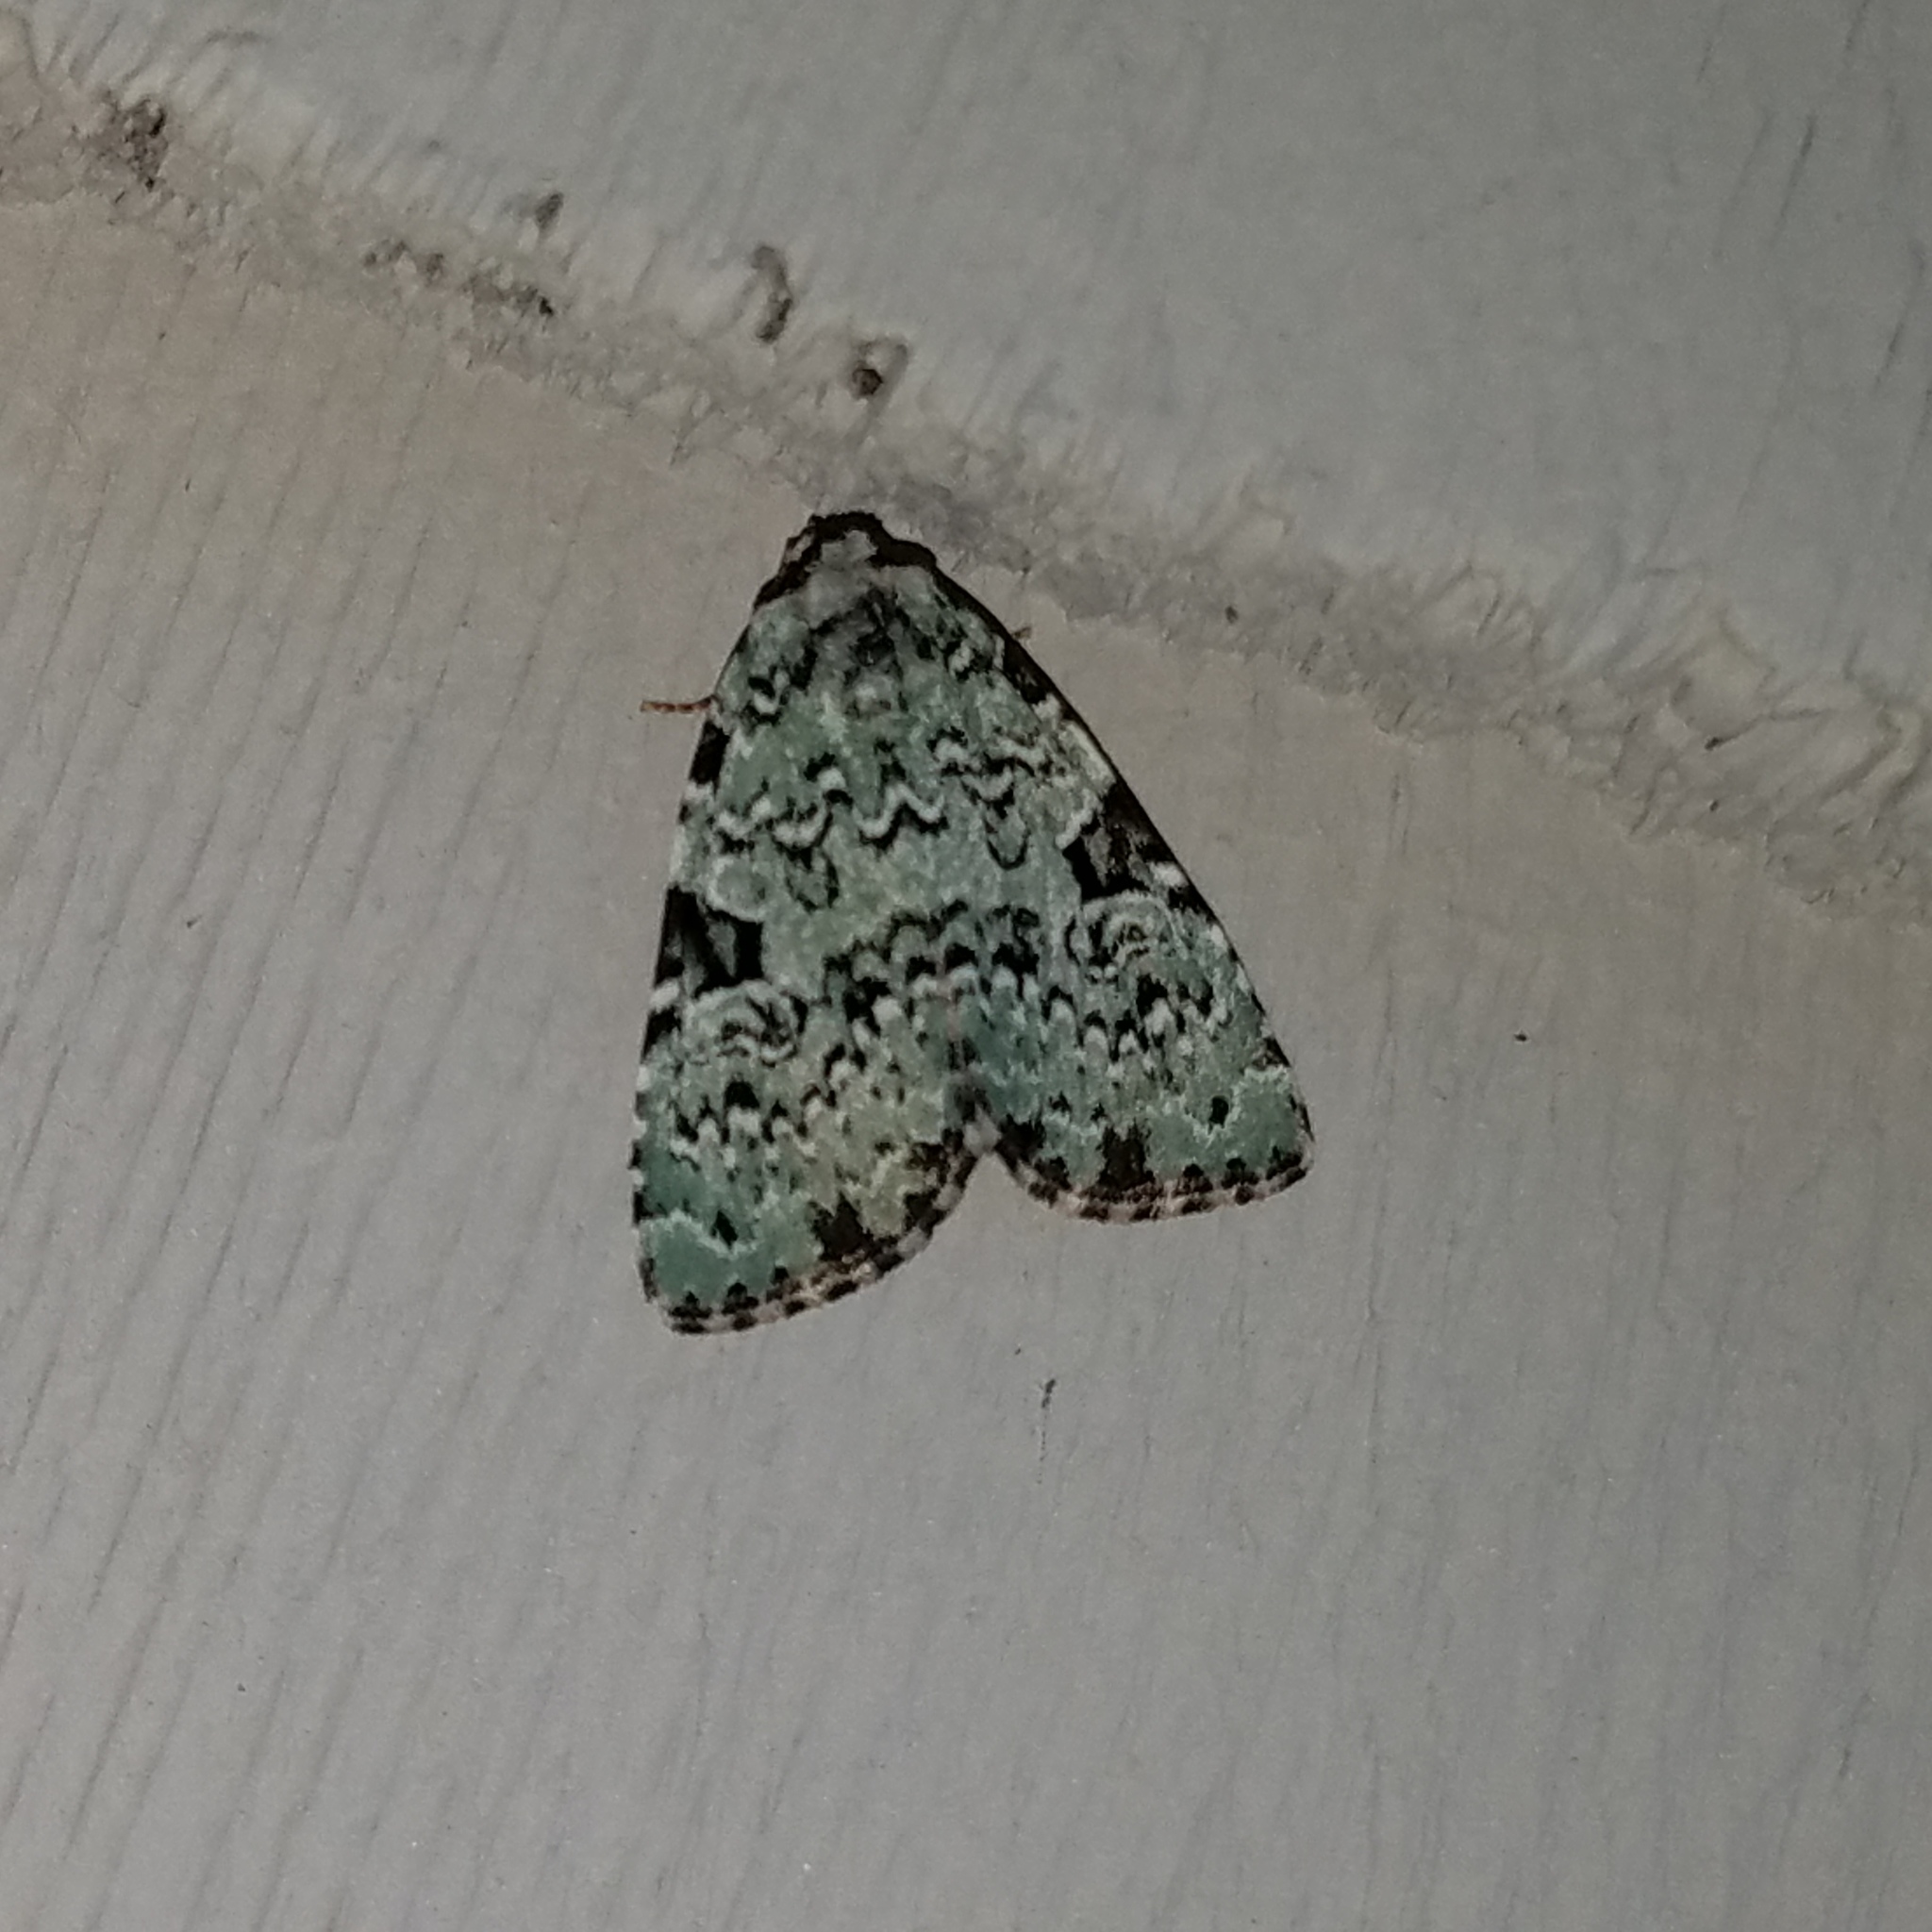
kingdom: Animalia
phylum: Arthropoda
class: Insecta
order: Lepidoptera
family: Noctuidae
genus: Leuconycta
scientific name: Leuconycta diphteroides
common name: Green leuconycta moth
